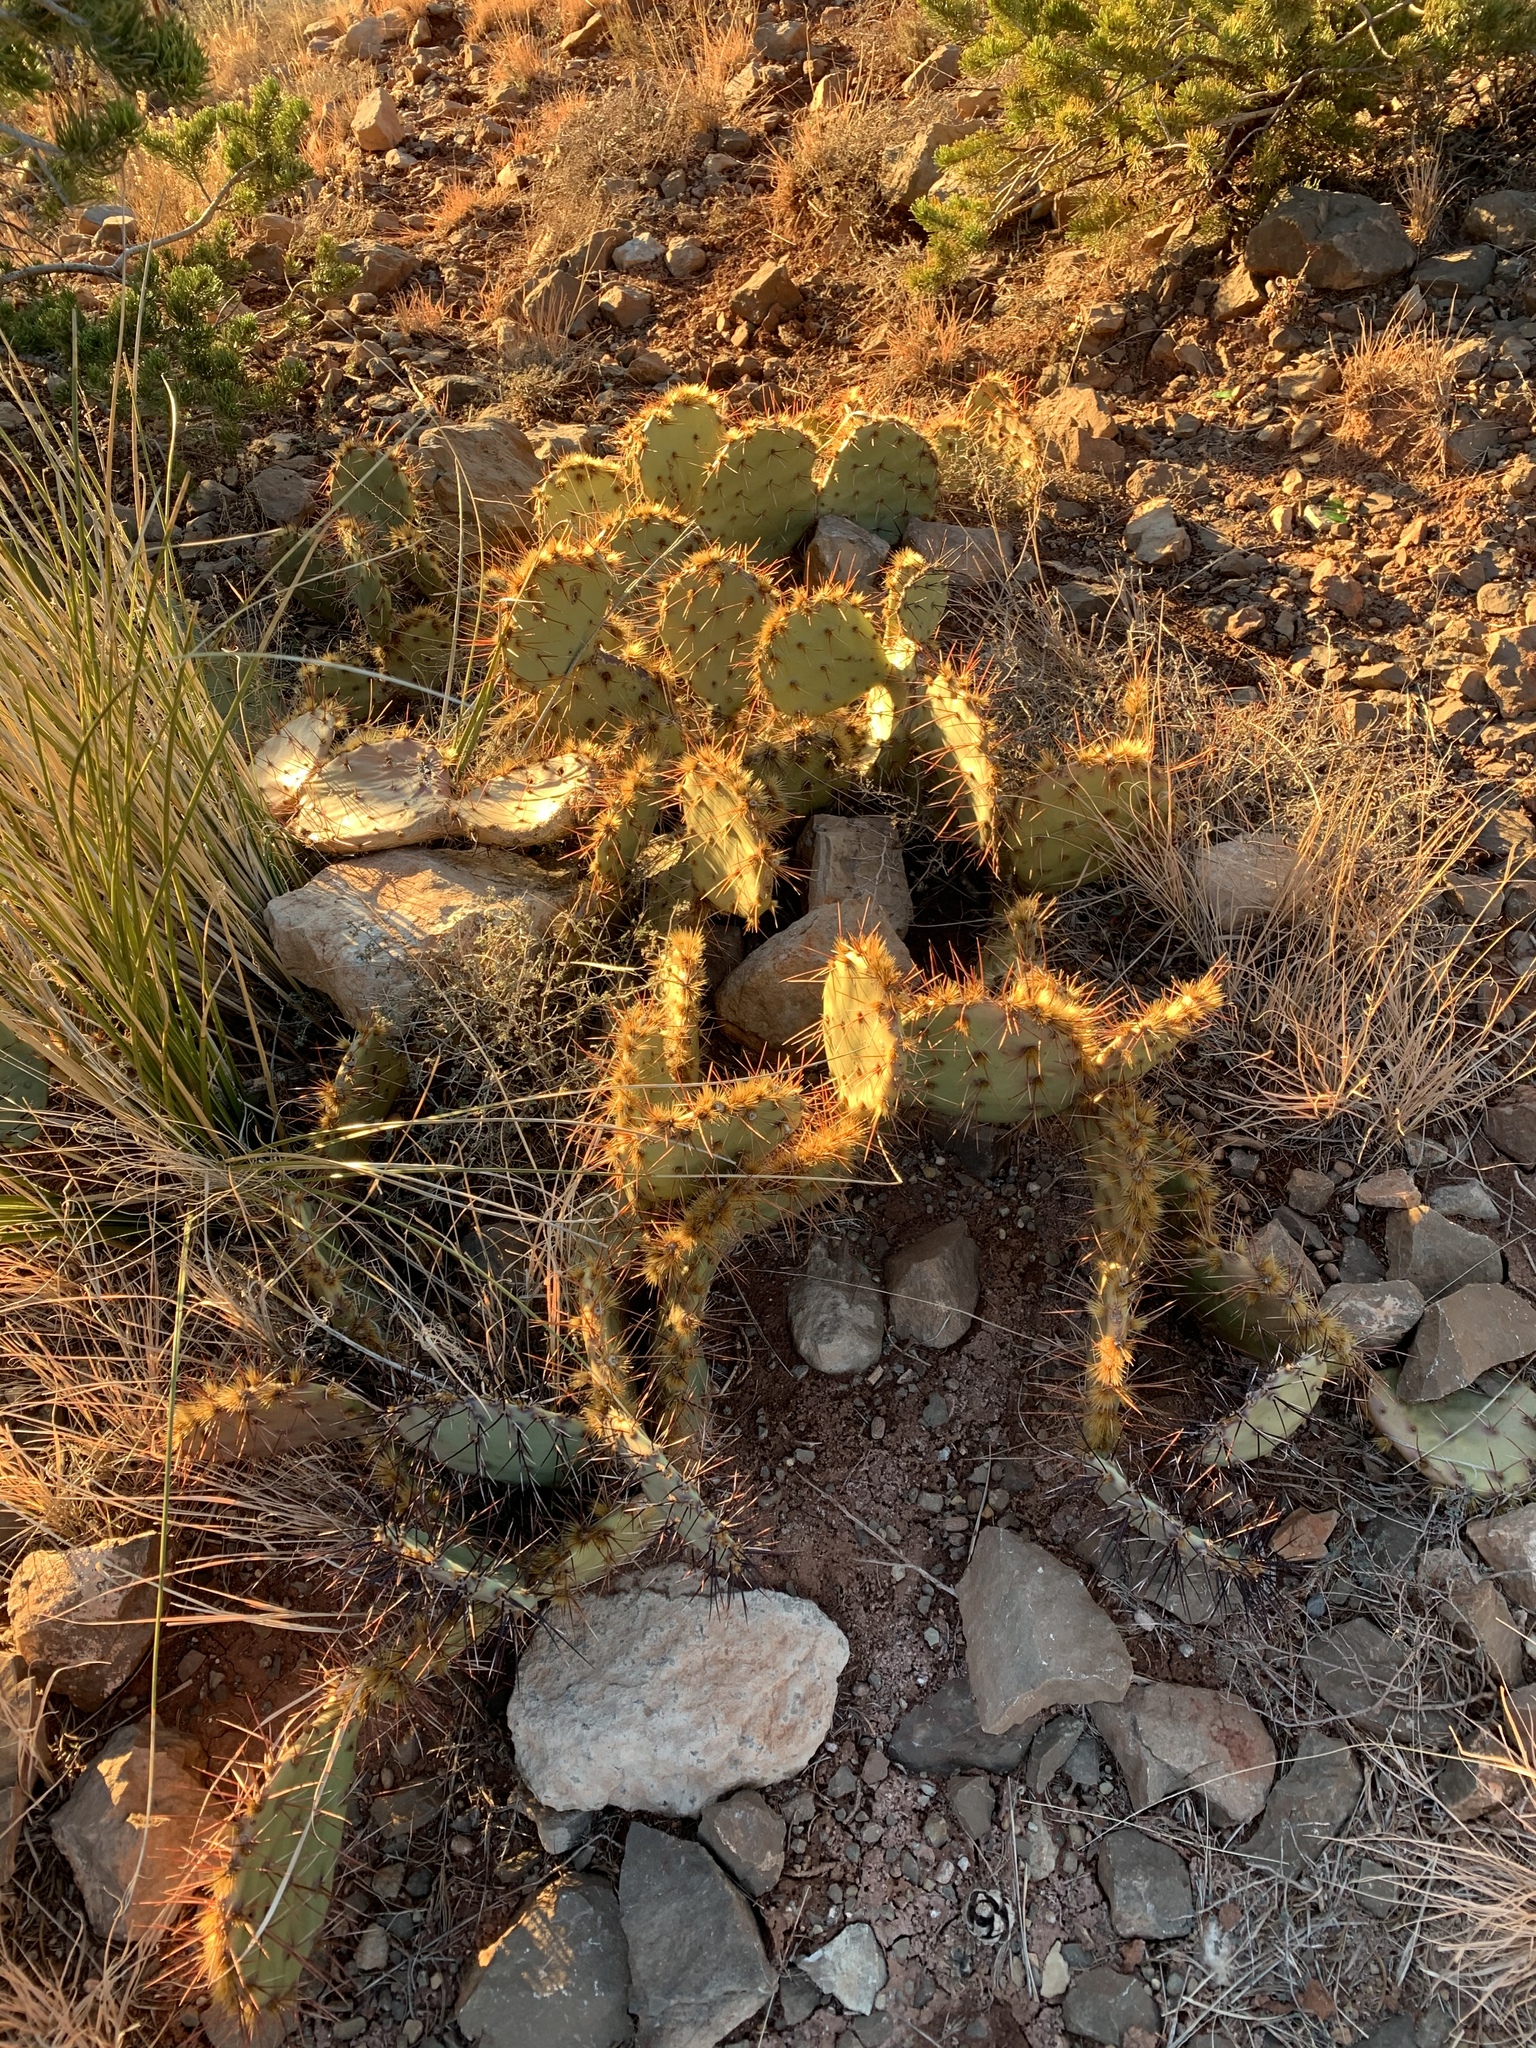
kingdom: Plantae
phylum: Tracheophyta
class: Magnoliopsida
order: Caryophyllales
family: Cactaceae
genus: Opuntia
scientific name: Opuntia phaeacantha
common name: New mexico prickly-pear
